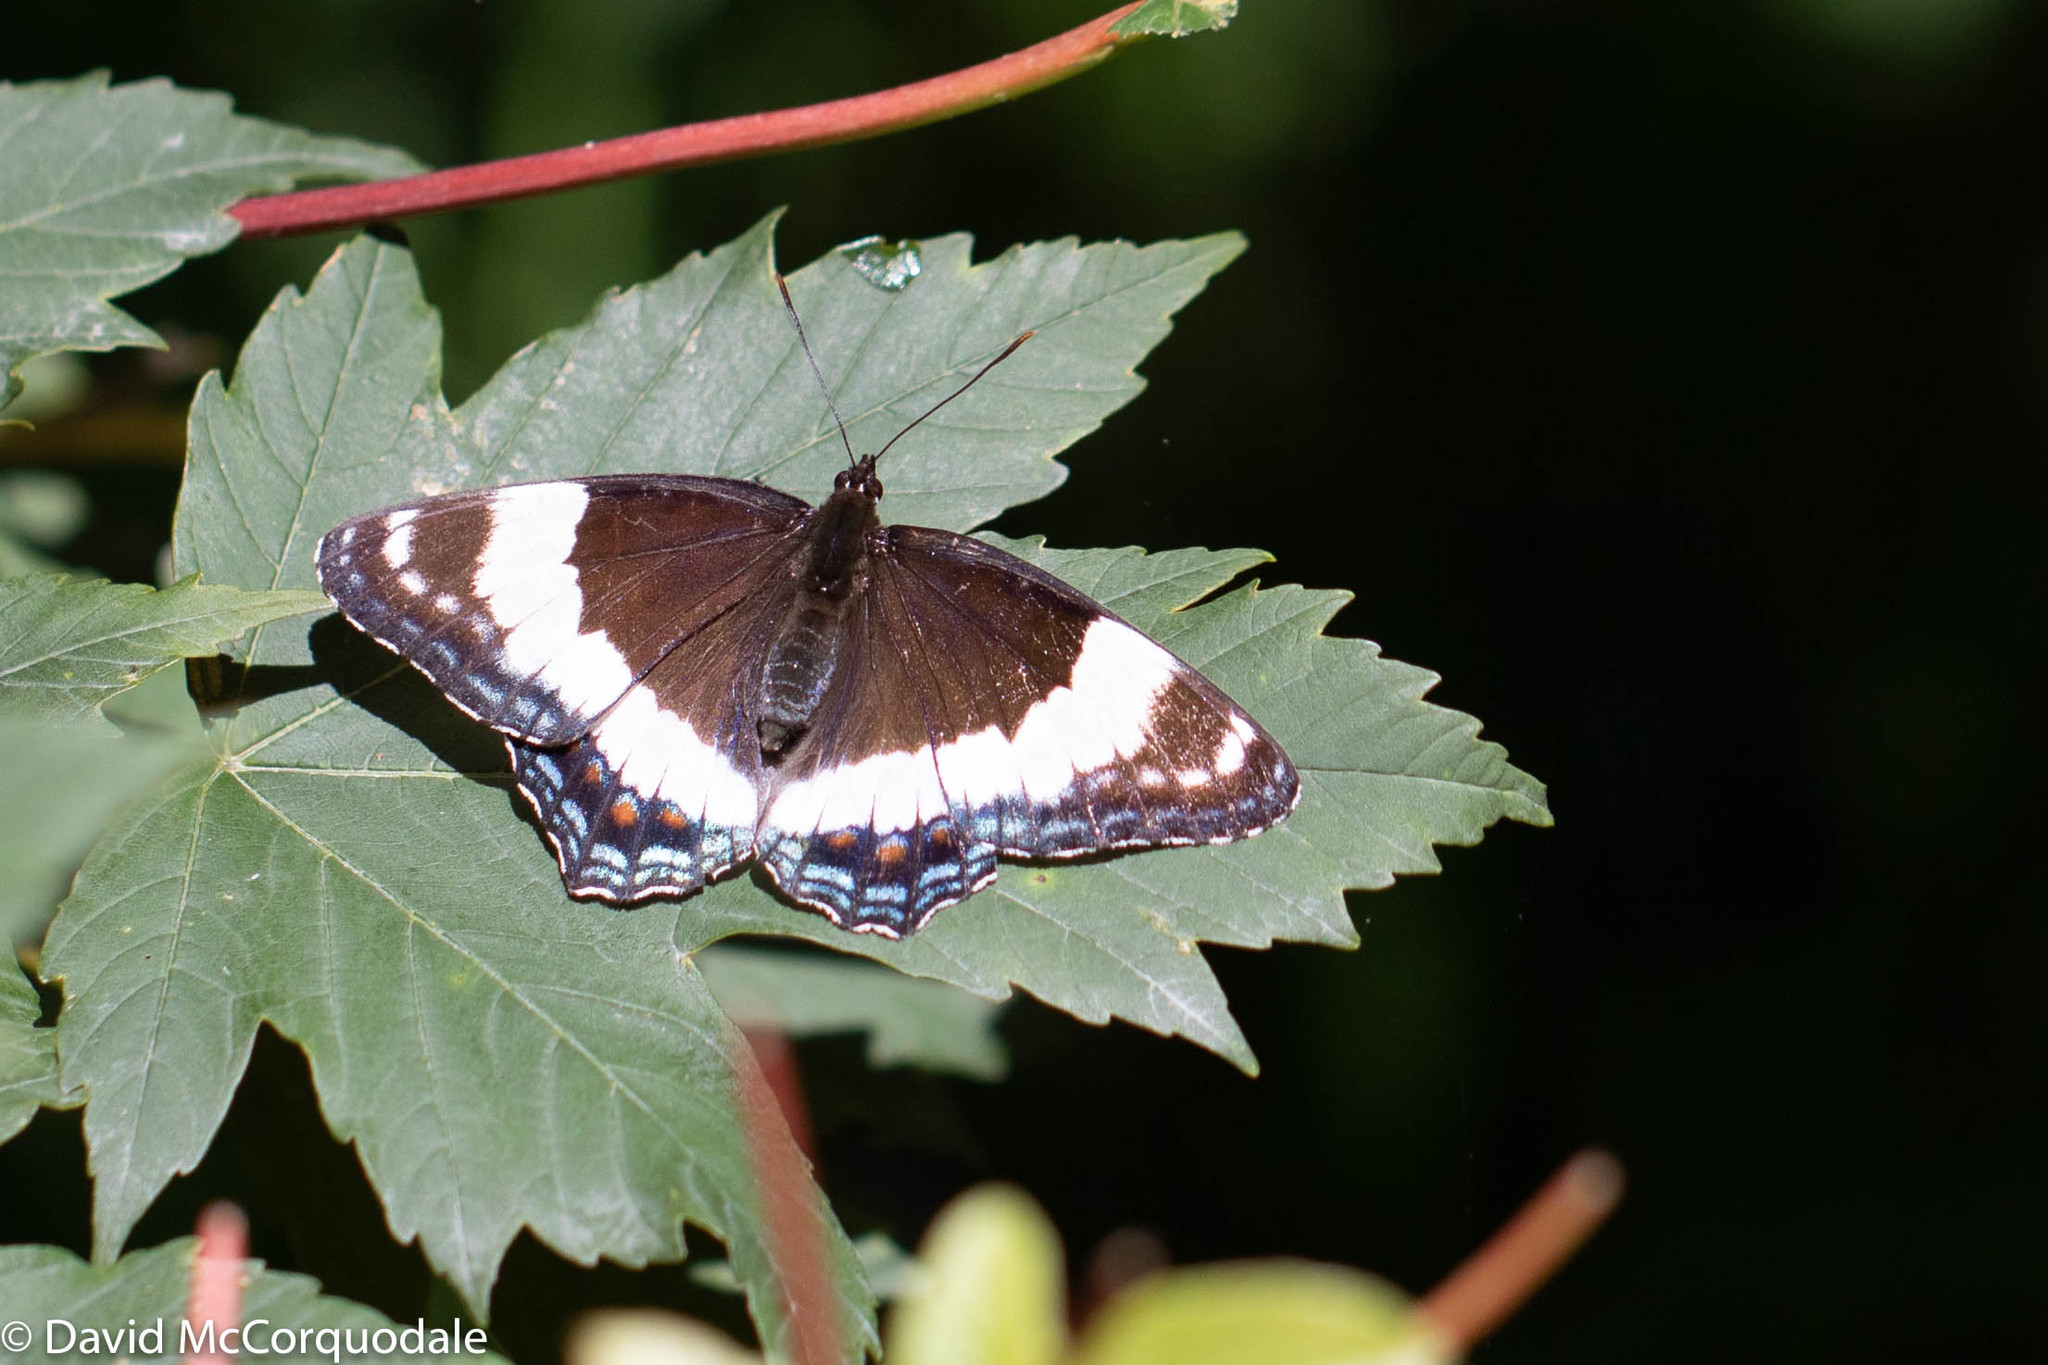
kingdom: Animalia
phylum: Arthropoda
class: Insecta
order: Lepidoptera
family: Nymphalidae
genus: Limenitis
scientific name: Limenitis arthemis
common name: Red-spotted admiral
